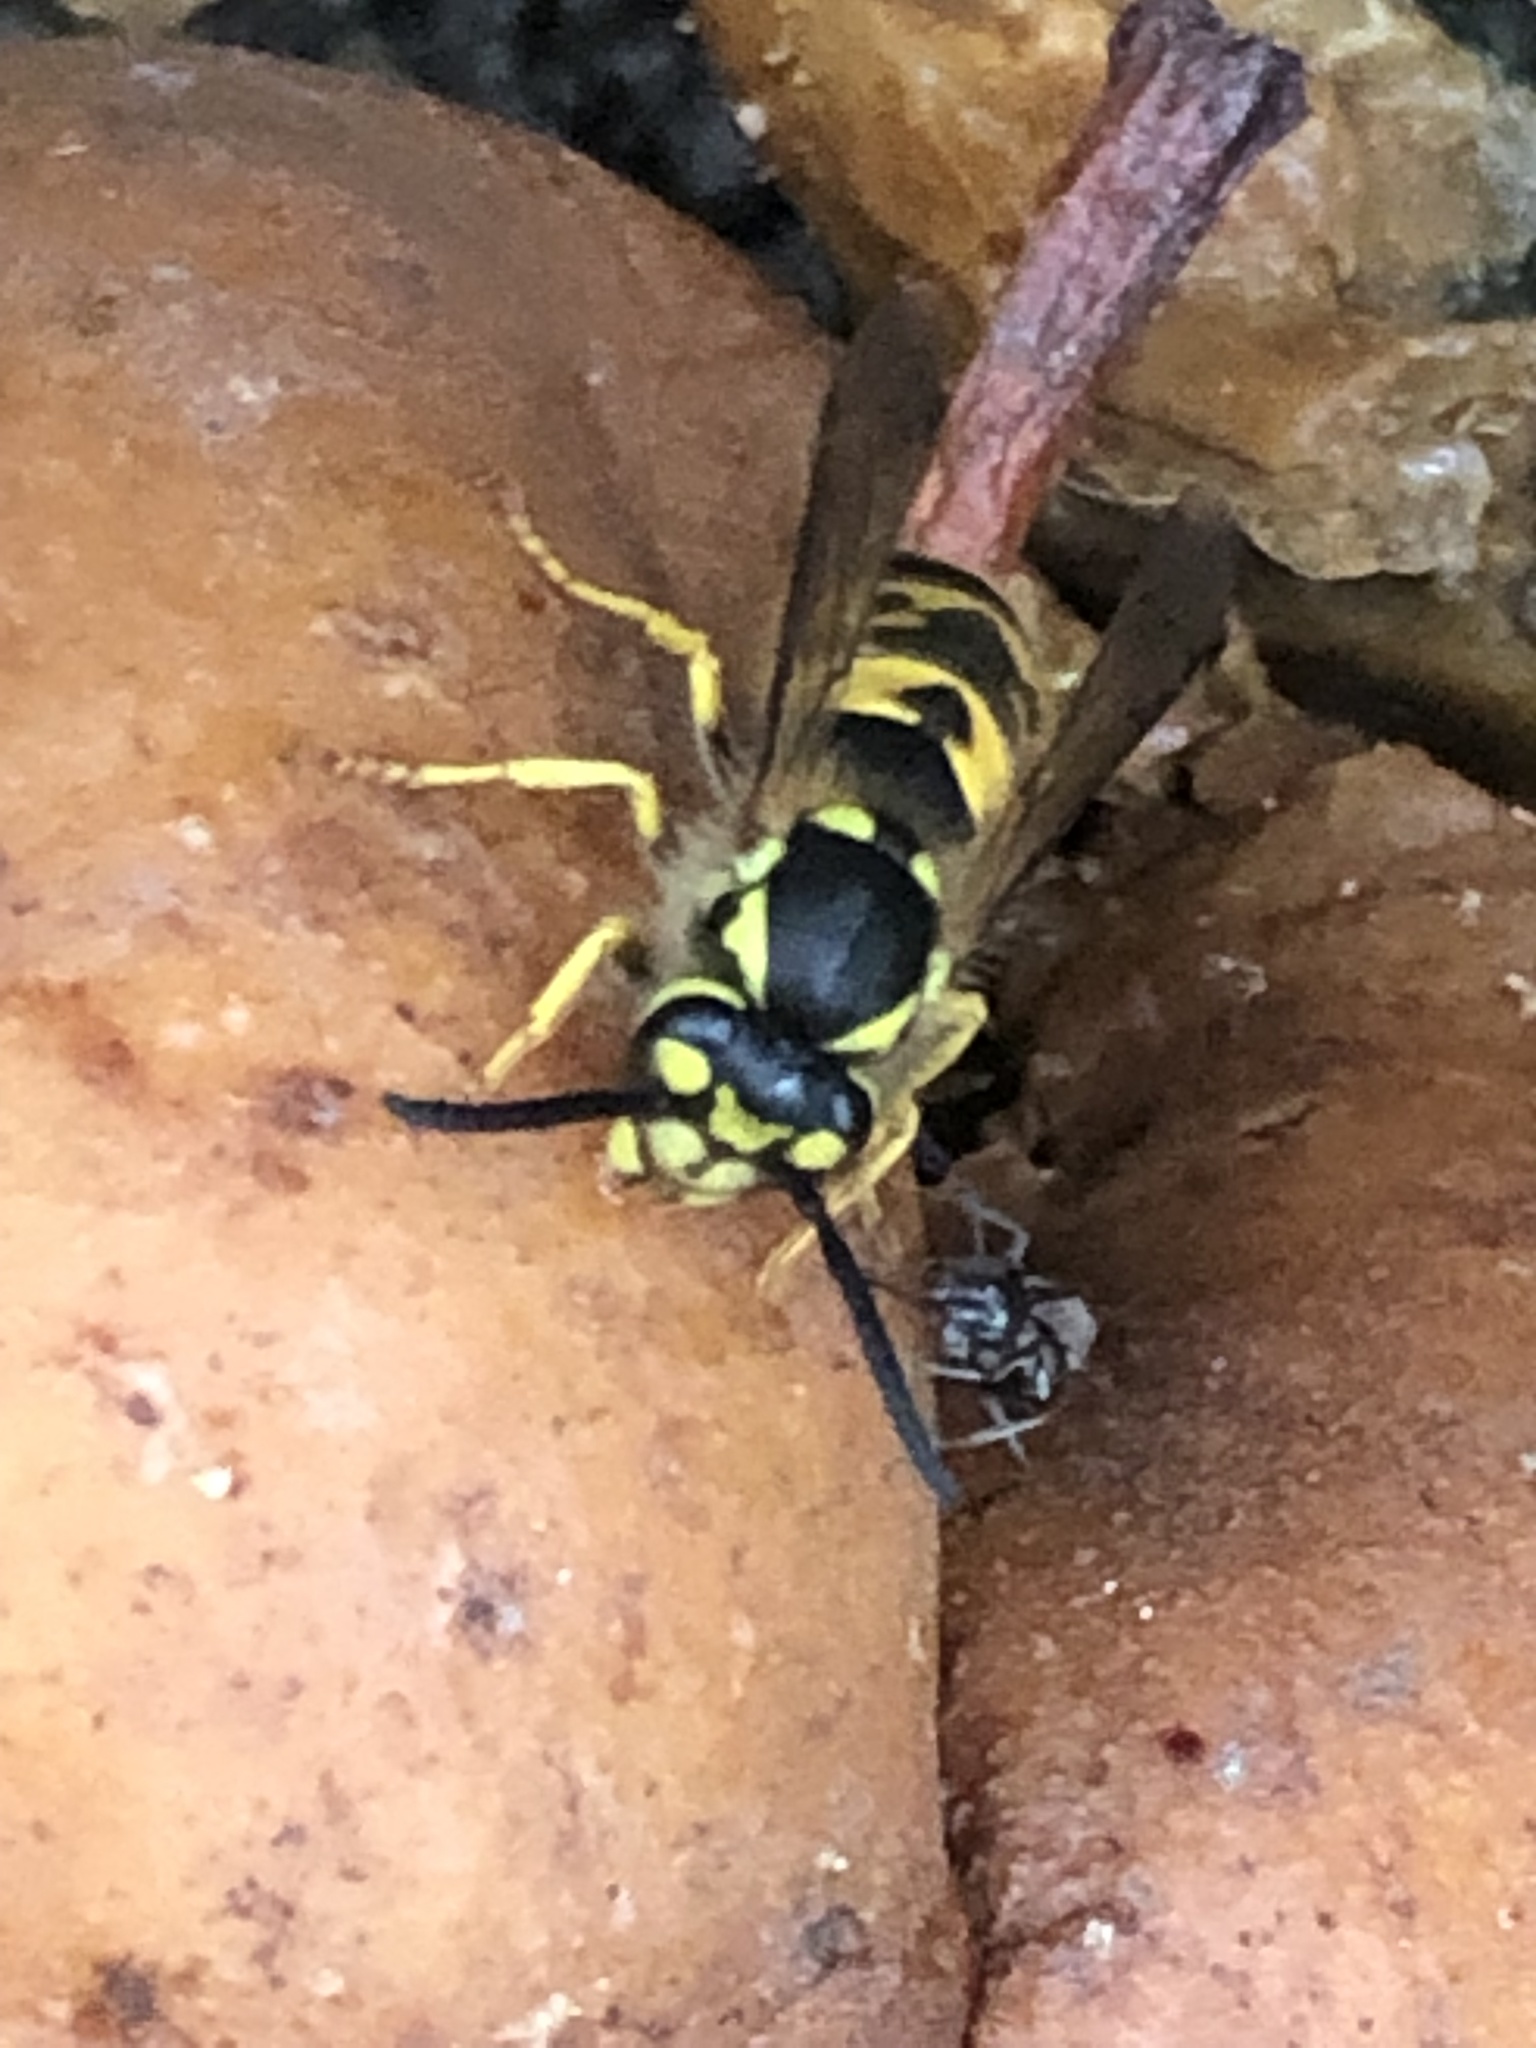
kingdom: Animalia
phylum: Arthropoda
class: Insecta
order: Hymenoptera
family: Vespidae
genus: Vespula
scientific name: Vespula germanica
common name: German wasp
